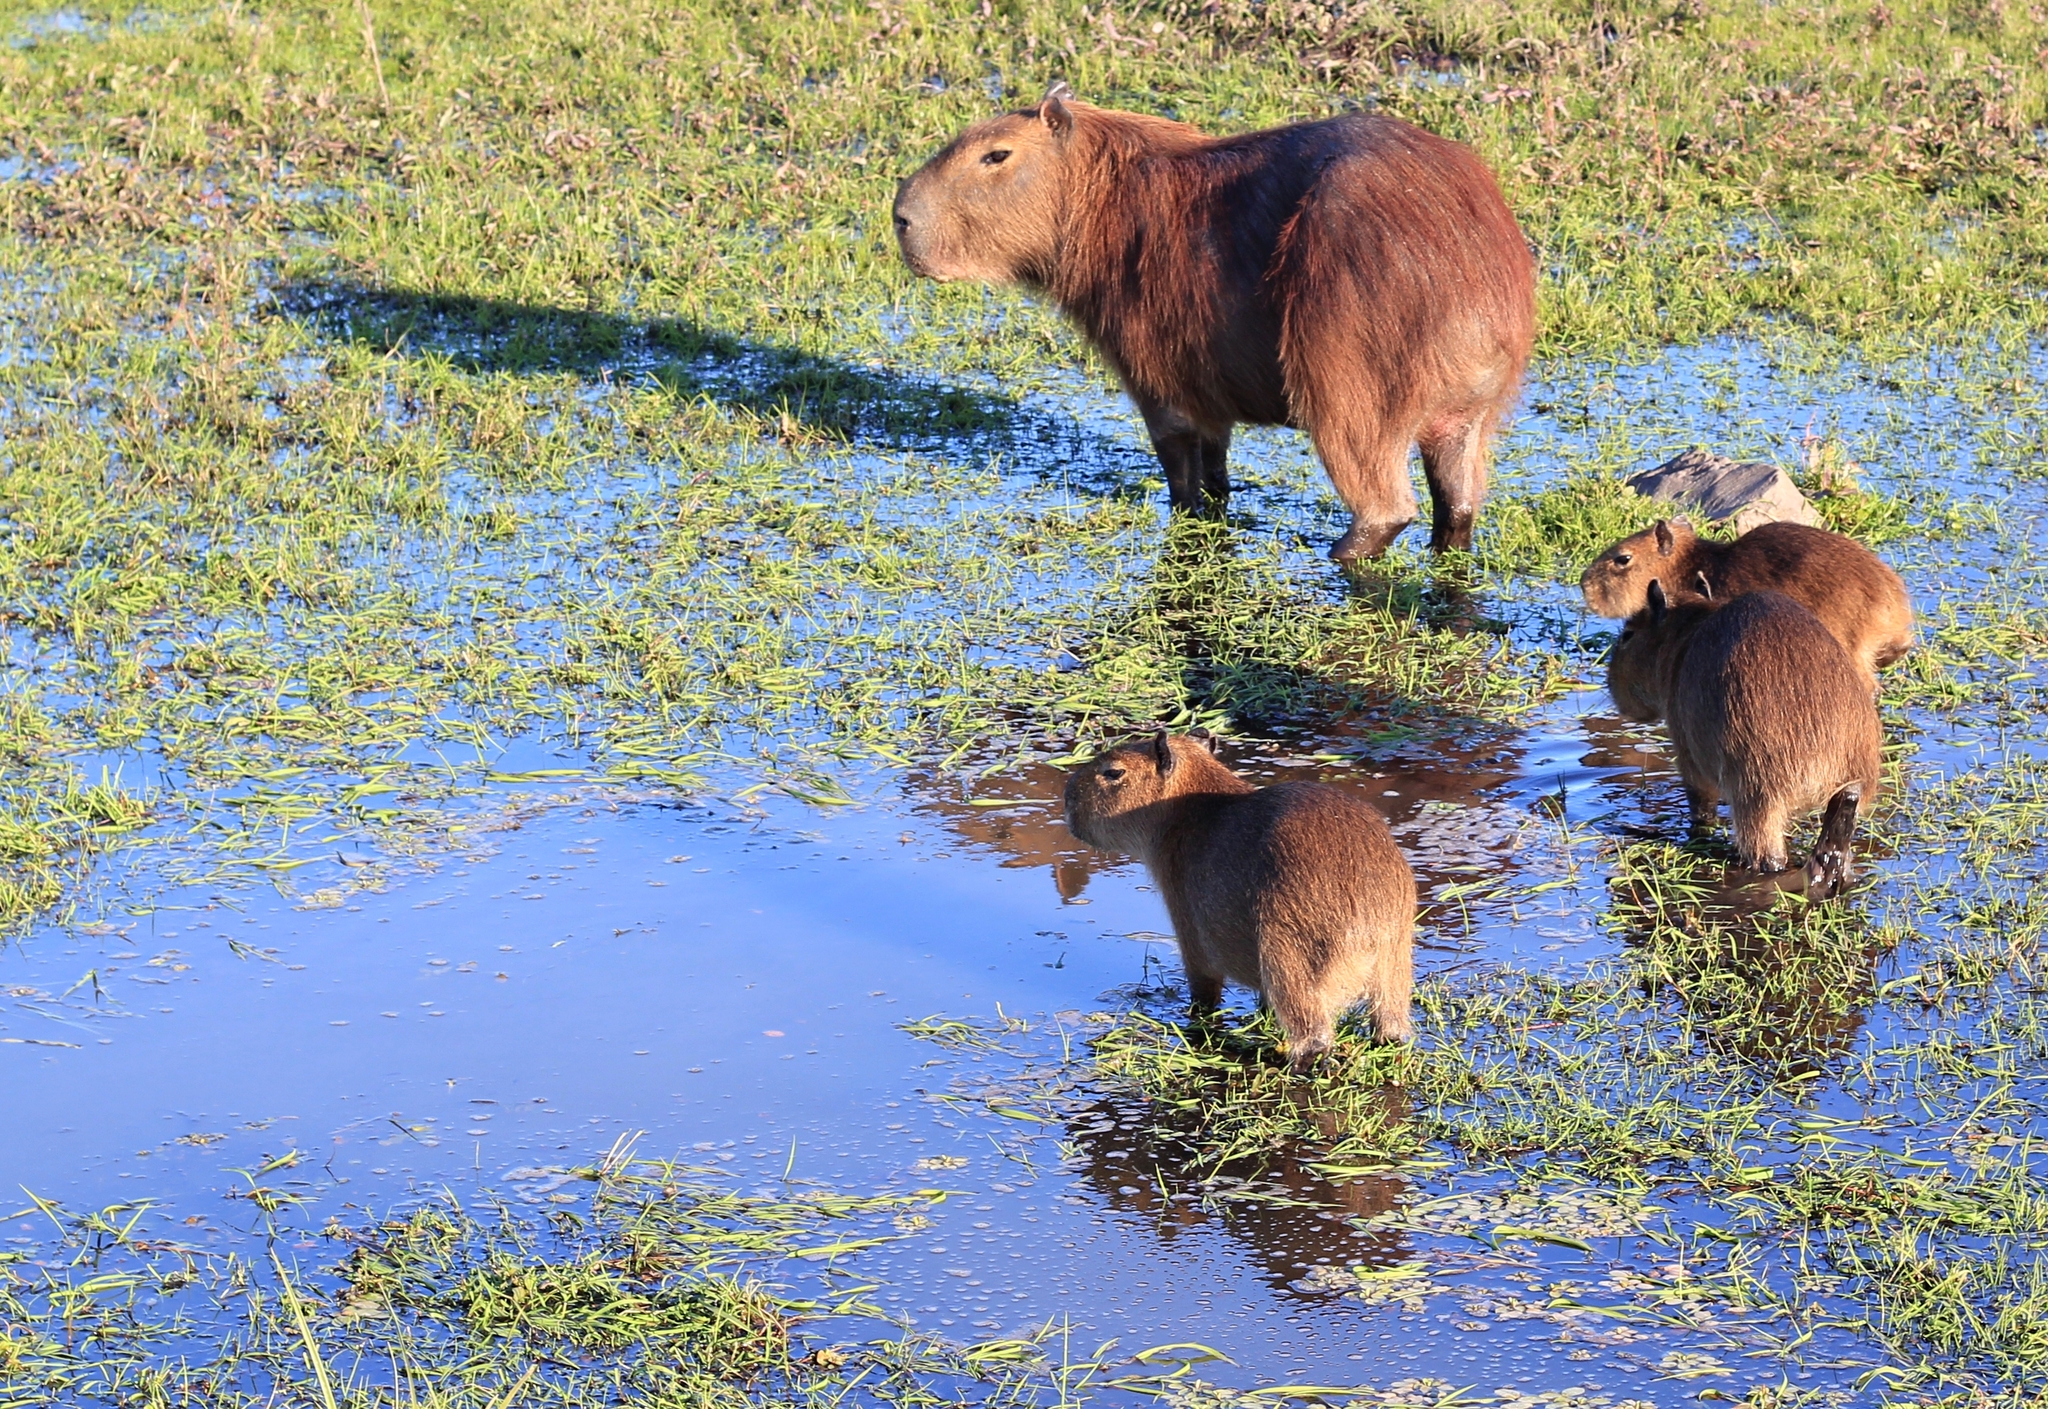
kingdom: Animalia
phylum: Chordata
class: Mammalia
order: Rodentia
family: Caviidae
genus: Hydrochoerus
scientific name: Hydrochoerus hydrochaeris
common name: Capybara
